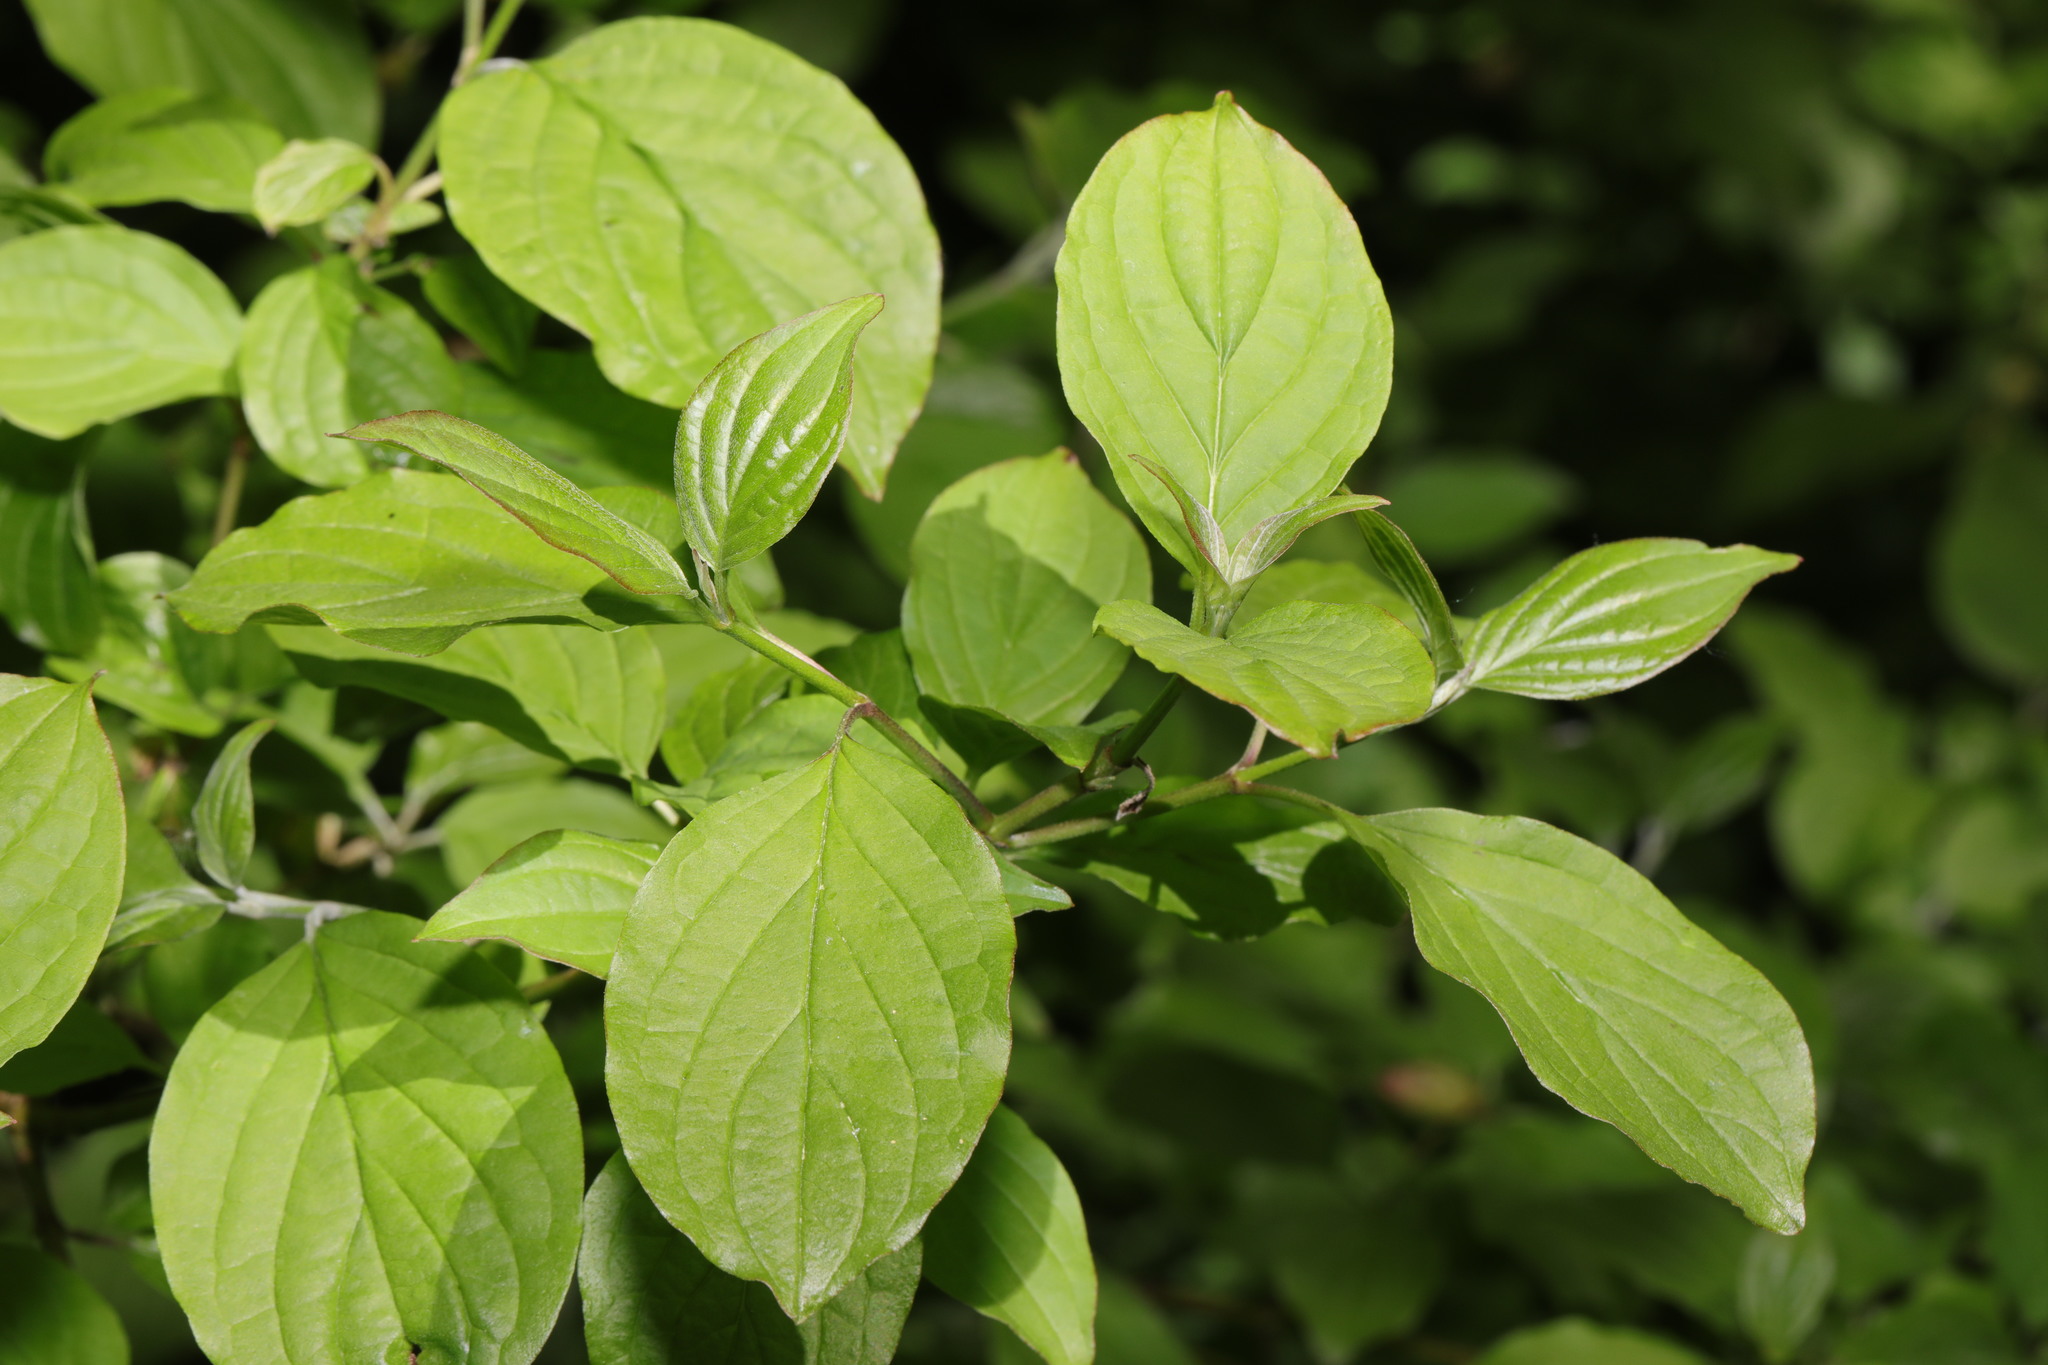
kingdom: Plantae
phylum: Tracheophyta
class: Magnoliopsida
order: Cornales
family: Cornaceae
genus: Cornus
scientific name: Cornus sanguinea
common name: Dogwood
